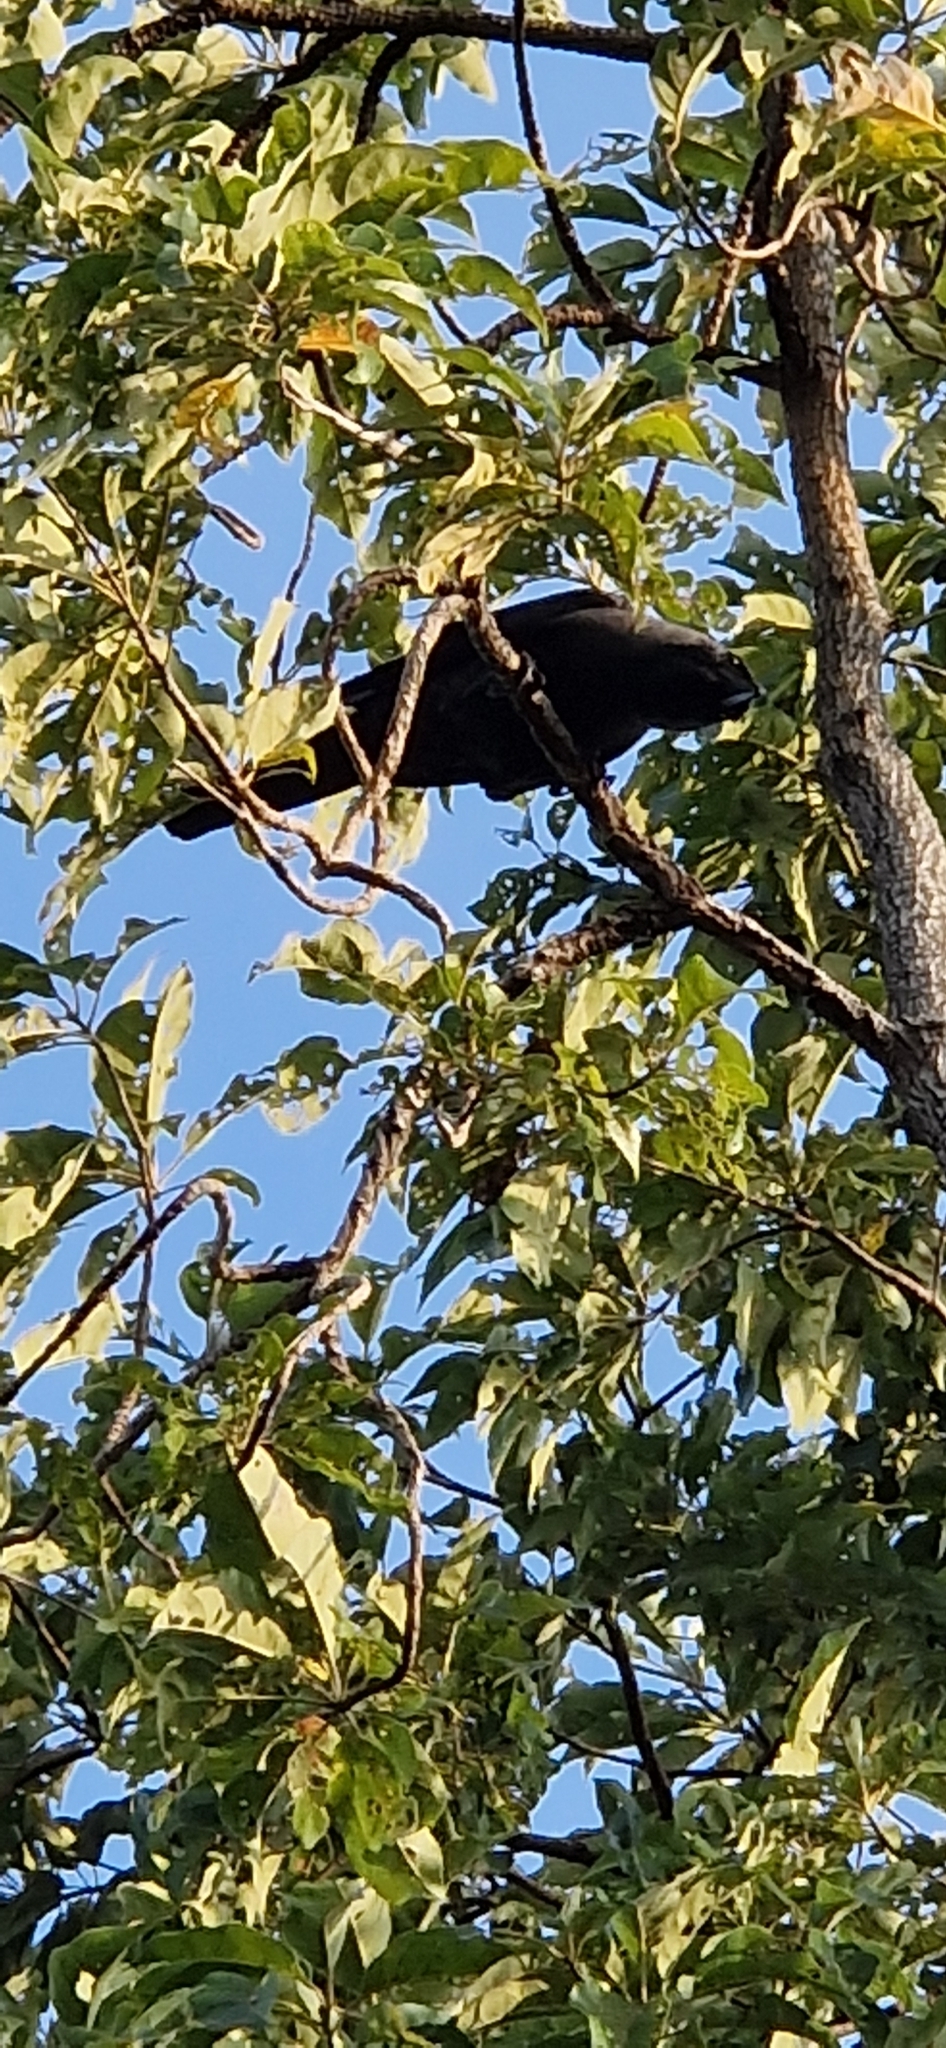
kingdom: Animalia
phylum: Chordata
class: Aves
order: Passeriformes
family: Corvidae
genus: Corvus
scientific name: Corvus splendens
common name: House crow
